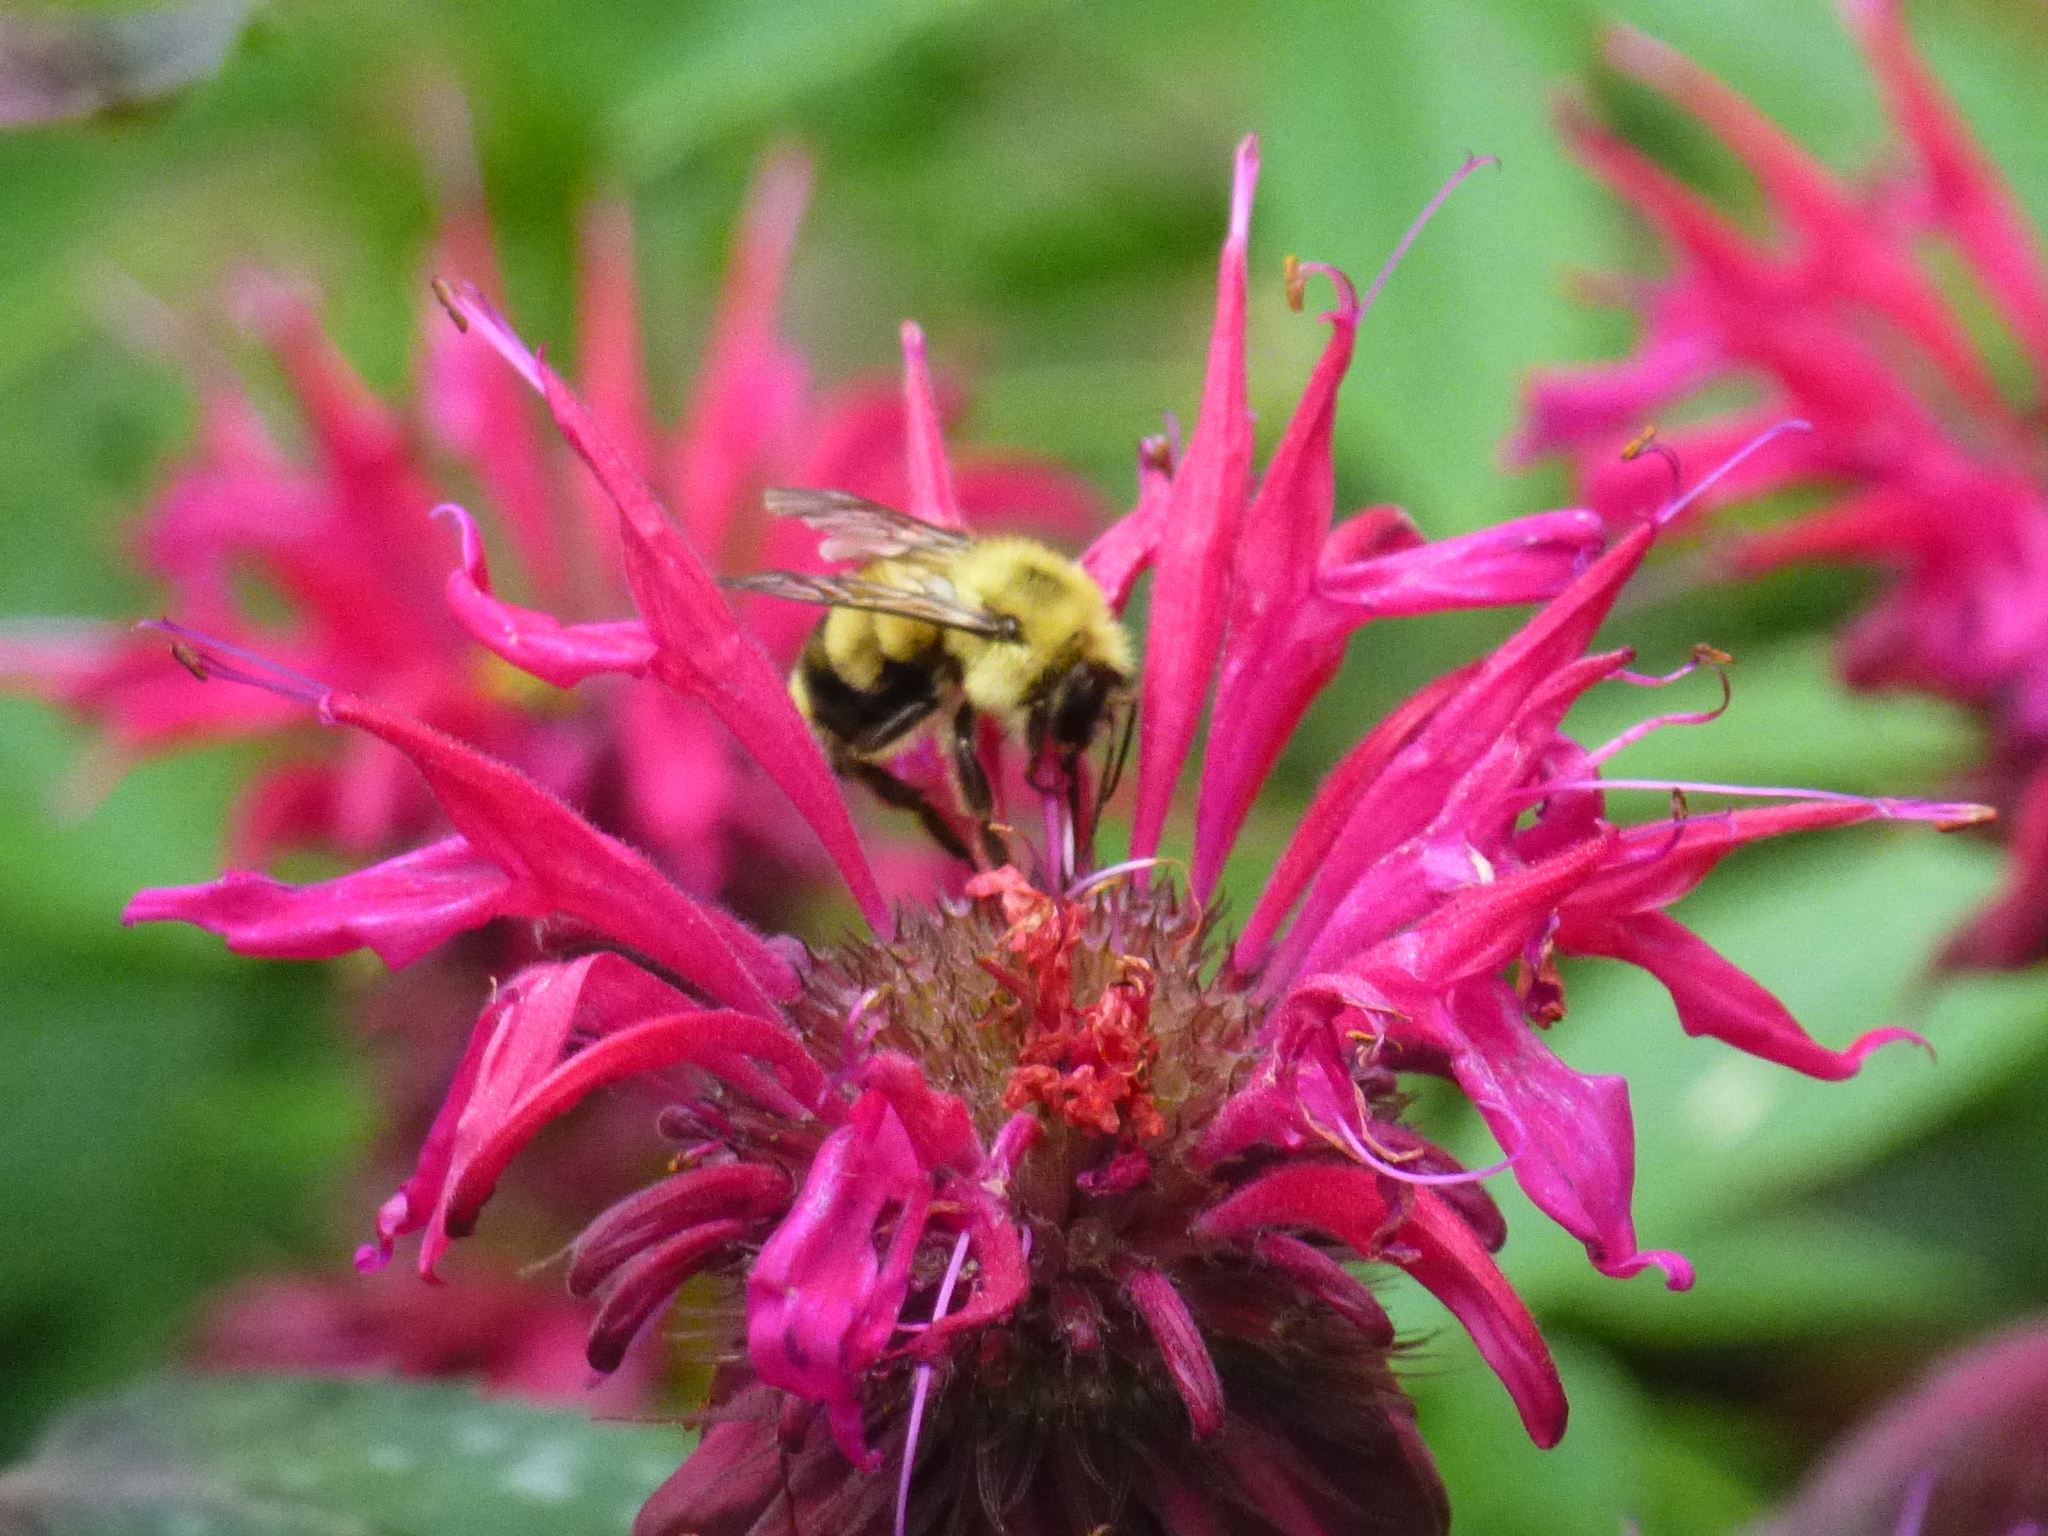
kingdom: Animalia
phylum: Arthropoda
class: Insecta
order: Hymenoptera
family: Apidae
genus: Pyrobombus
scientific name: Pyrobombus
